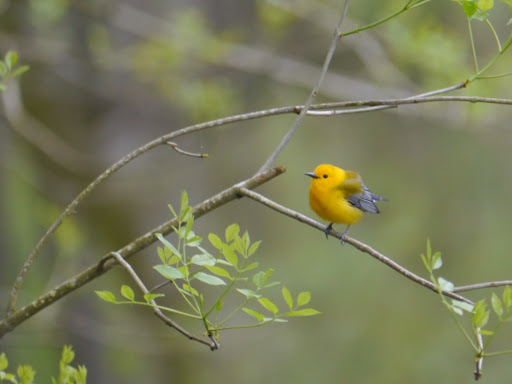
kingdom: Animalia
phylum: Chordata
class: Aves
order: Passeriformes
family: Parulidae
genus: Protonotaria
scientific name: Protonotaria citrea
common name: Prothonotary warbler
